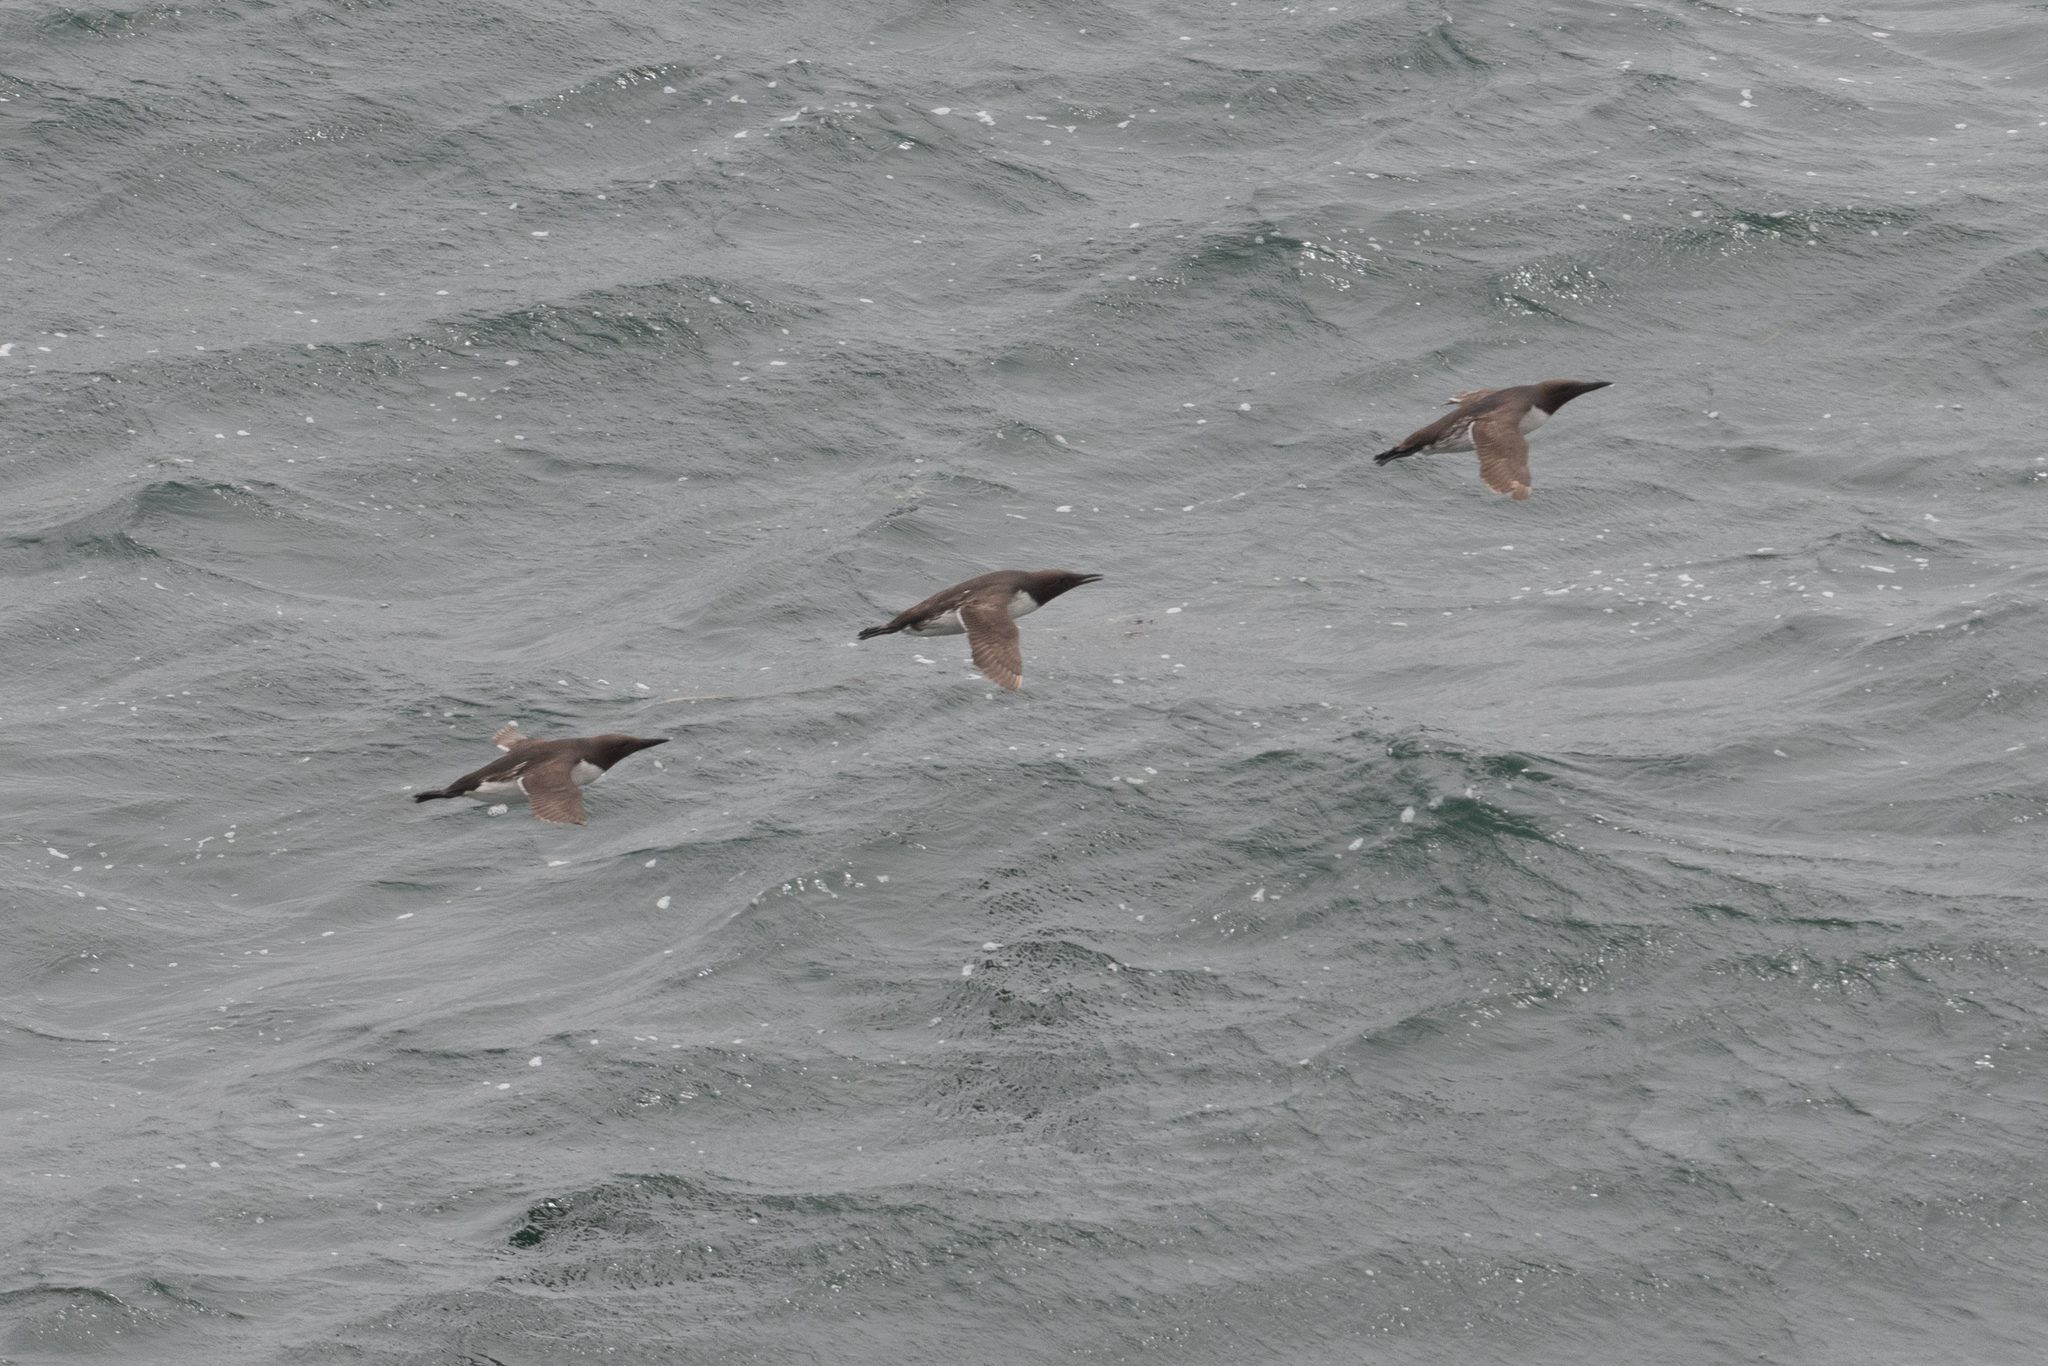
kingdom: Animalia
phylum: Chordata
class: Aves
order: Charadriiformes
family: Alcidae
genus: Uria
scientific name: Uria aalge
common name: Common murre
